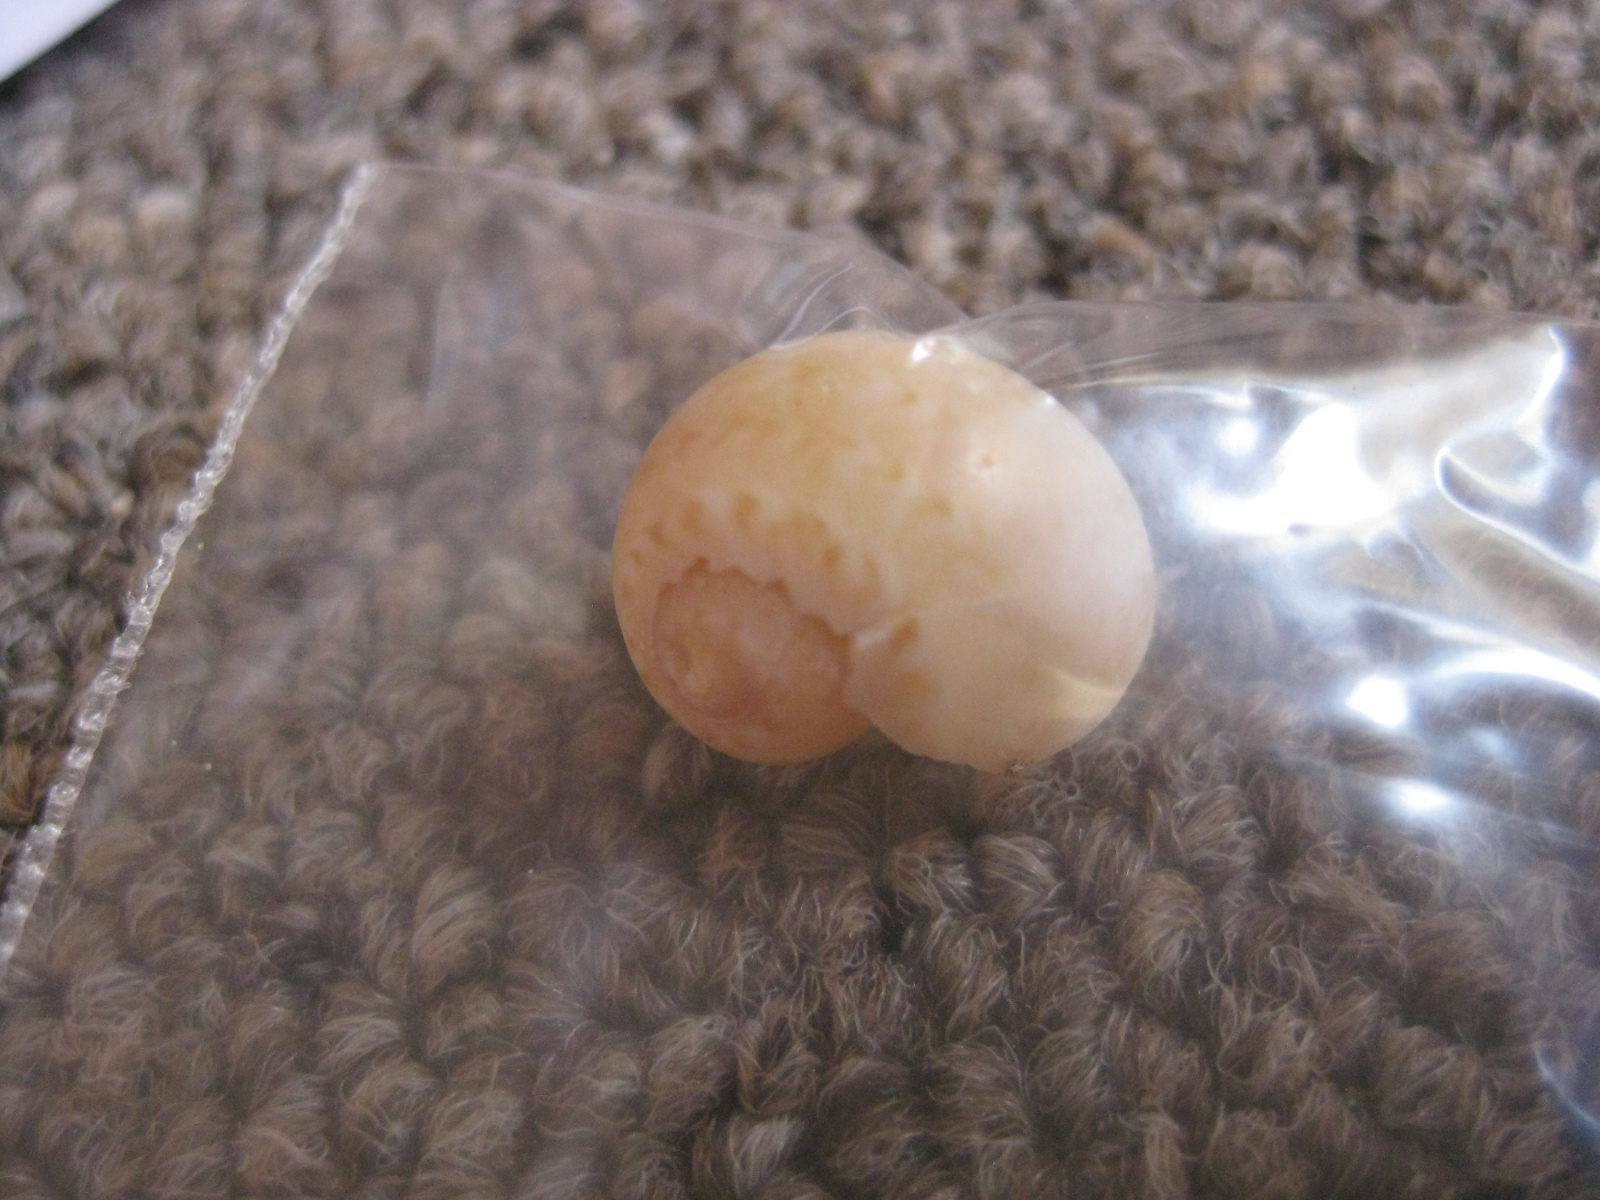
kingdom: Animalia
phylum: Mollusca
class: Gastropoda
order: Littorinimorpha
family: Naticidae
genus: Tanea
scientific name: Tanea zelandica
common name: New zealand moonsnail
